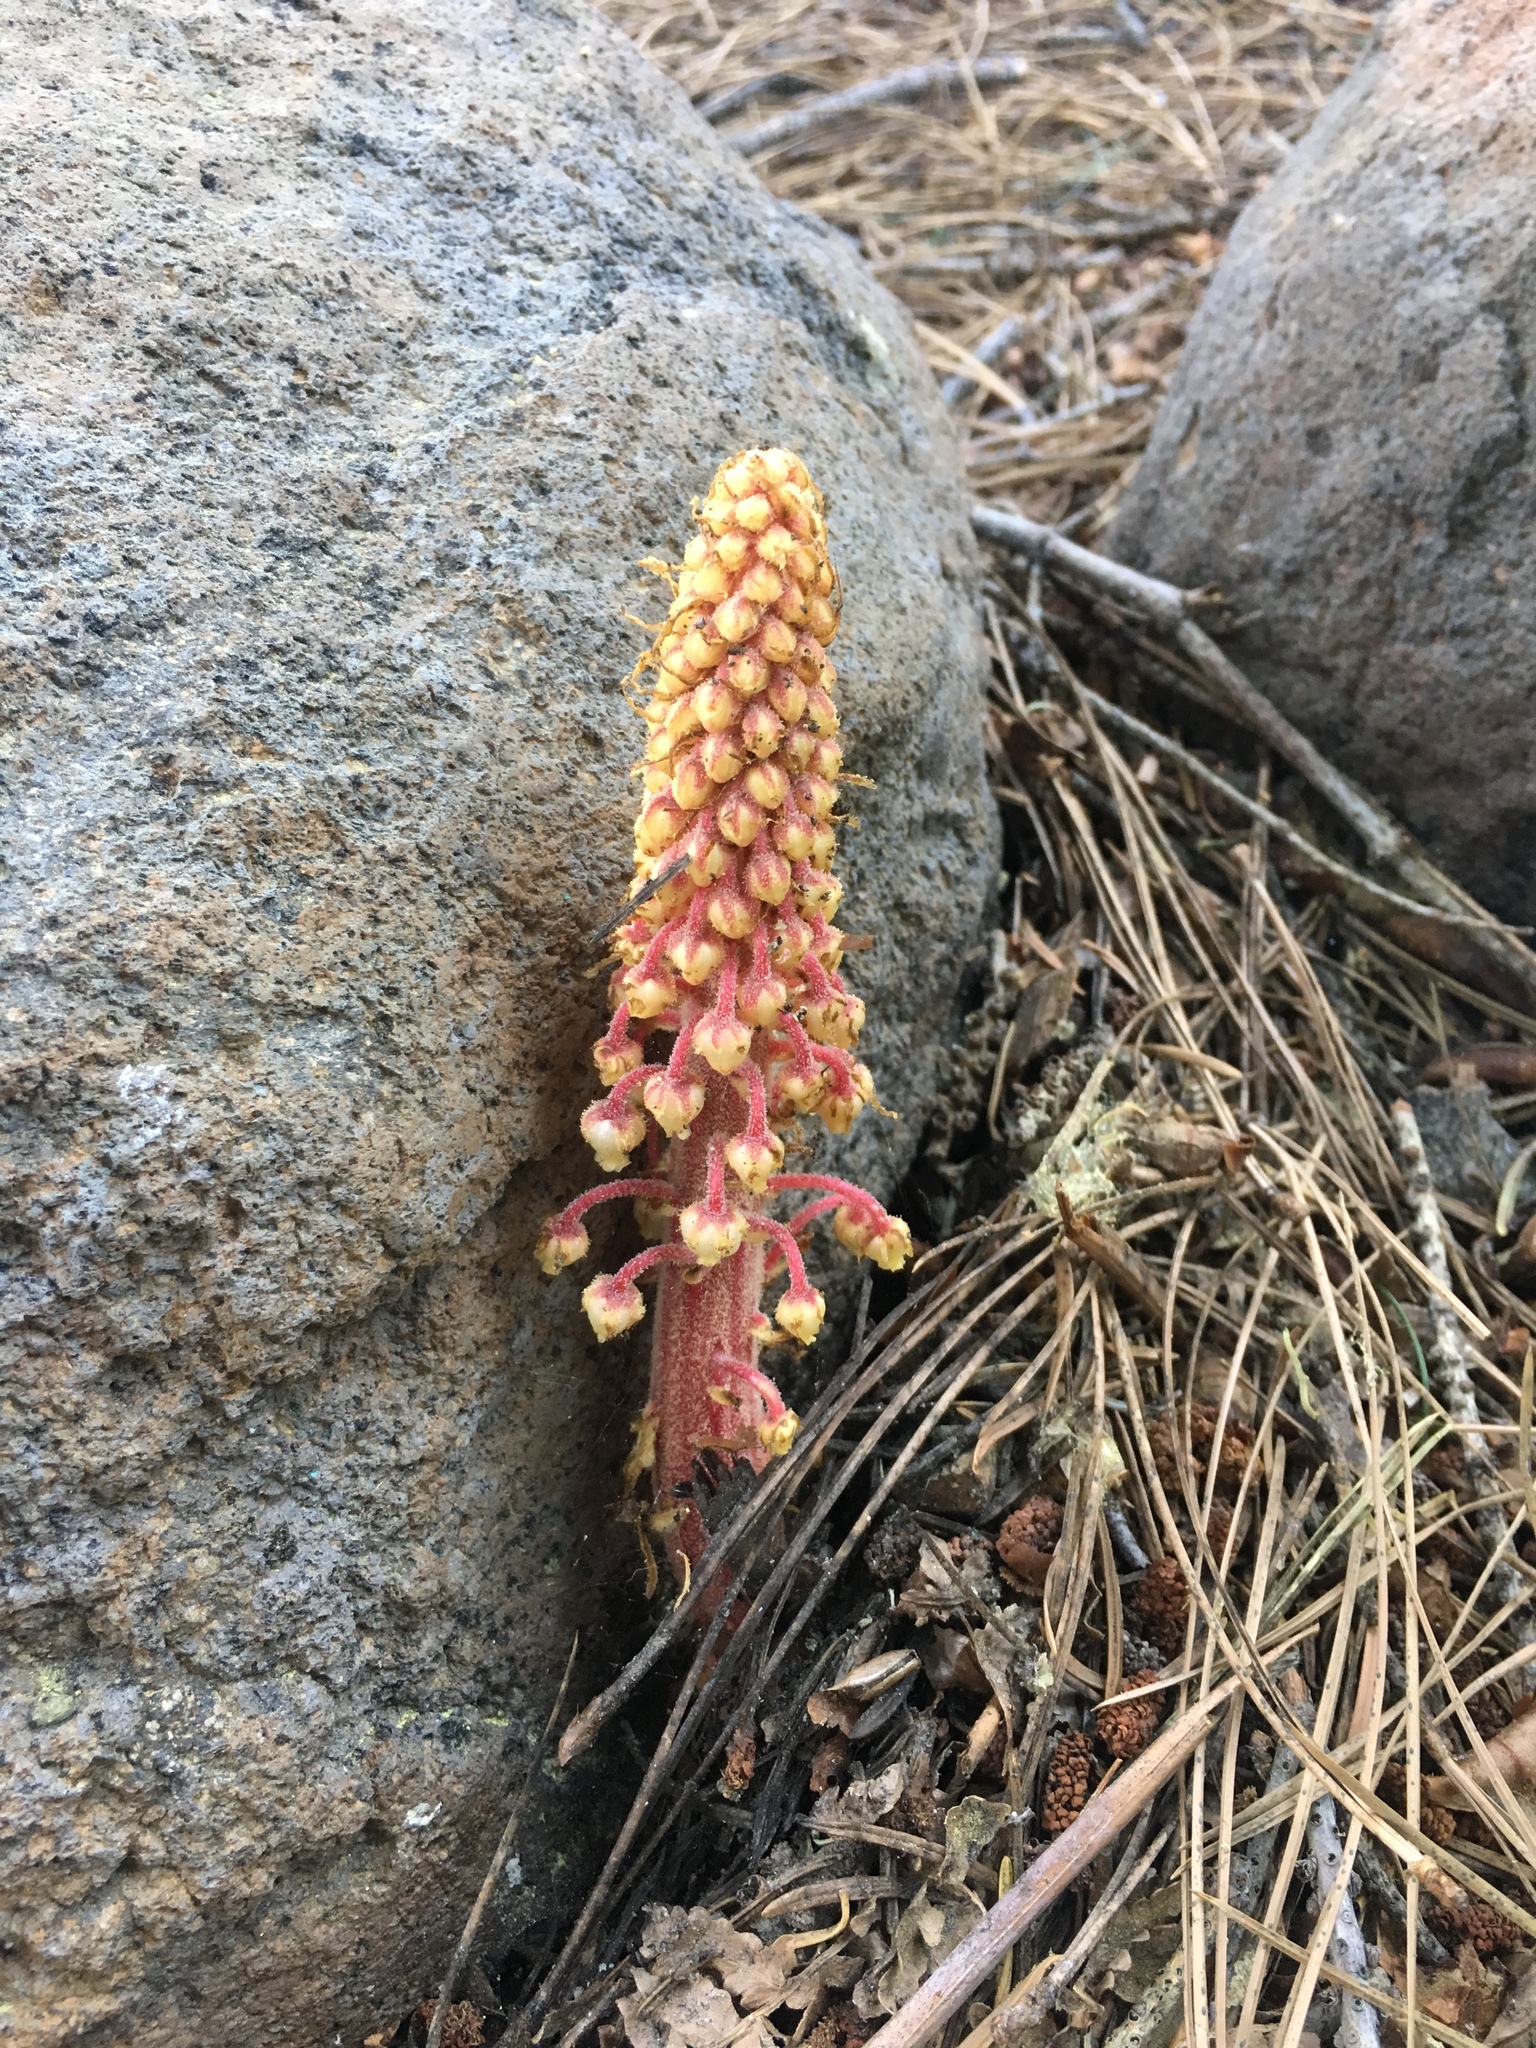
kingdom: Plantae
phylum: Tracheophyta
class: Magnoliopsida
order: Ericales
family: Ericaceae
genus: Pterospora
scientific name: Pterospora andromedea
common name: Giant bird's-nest
